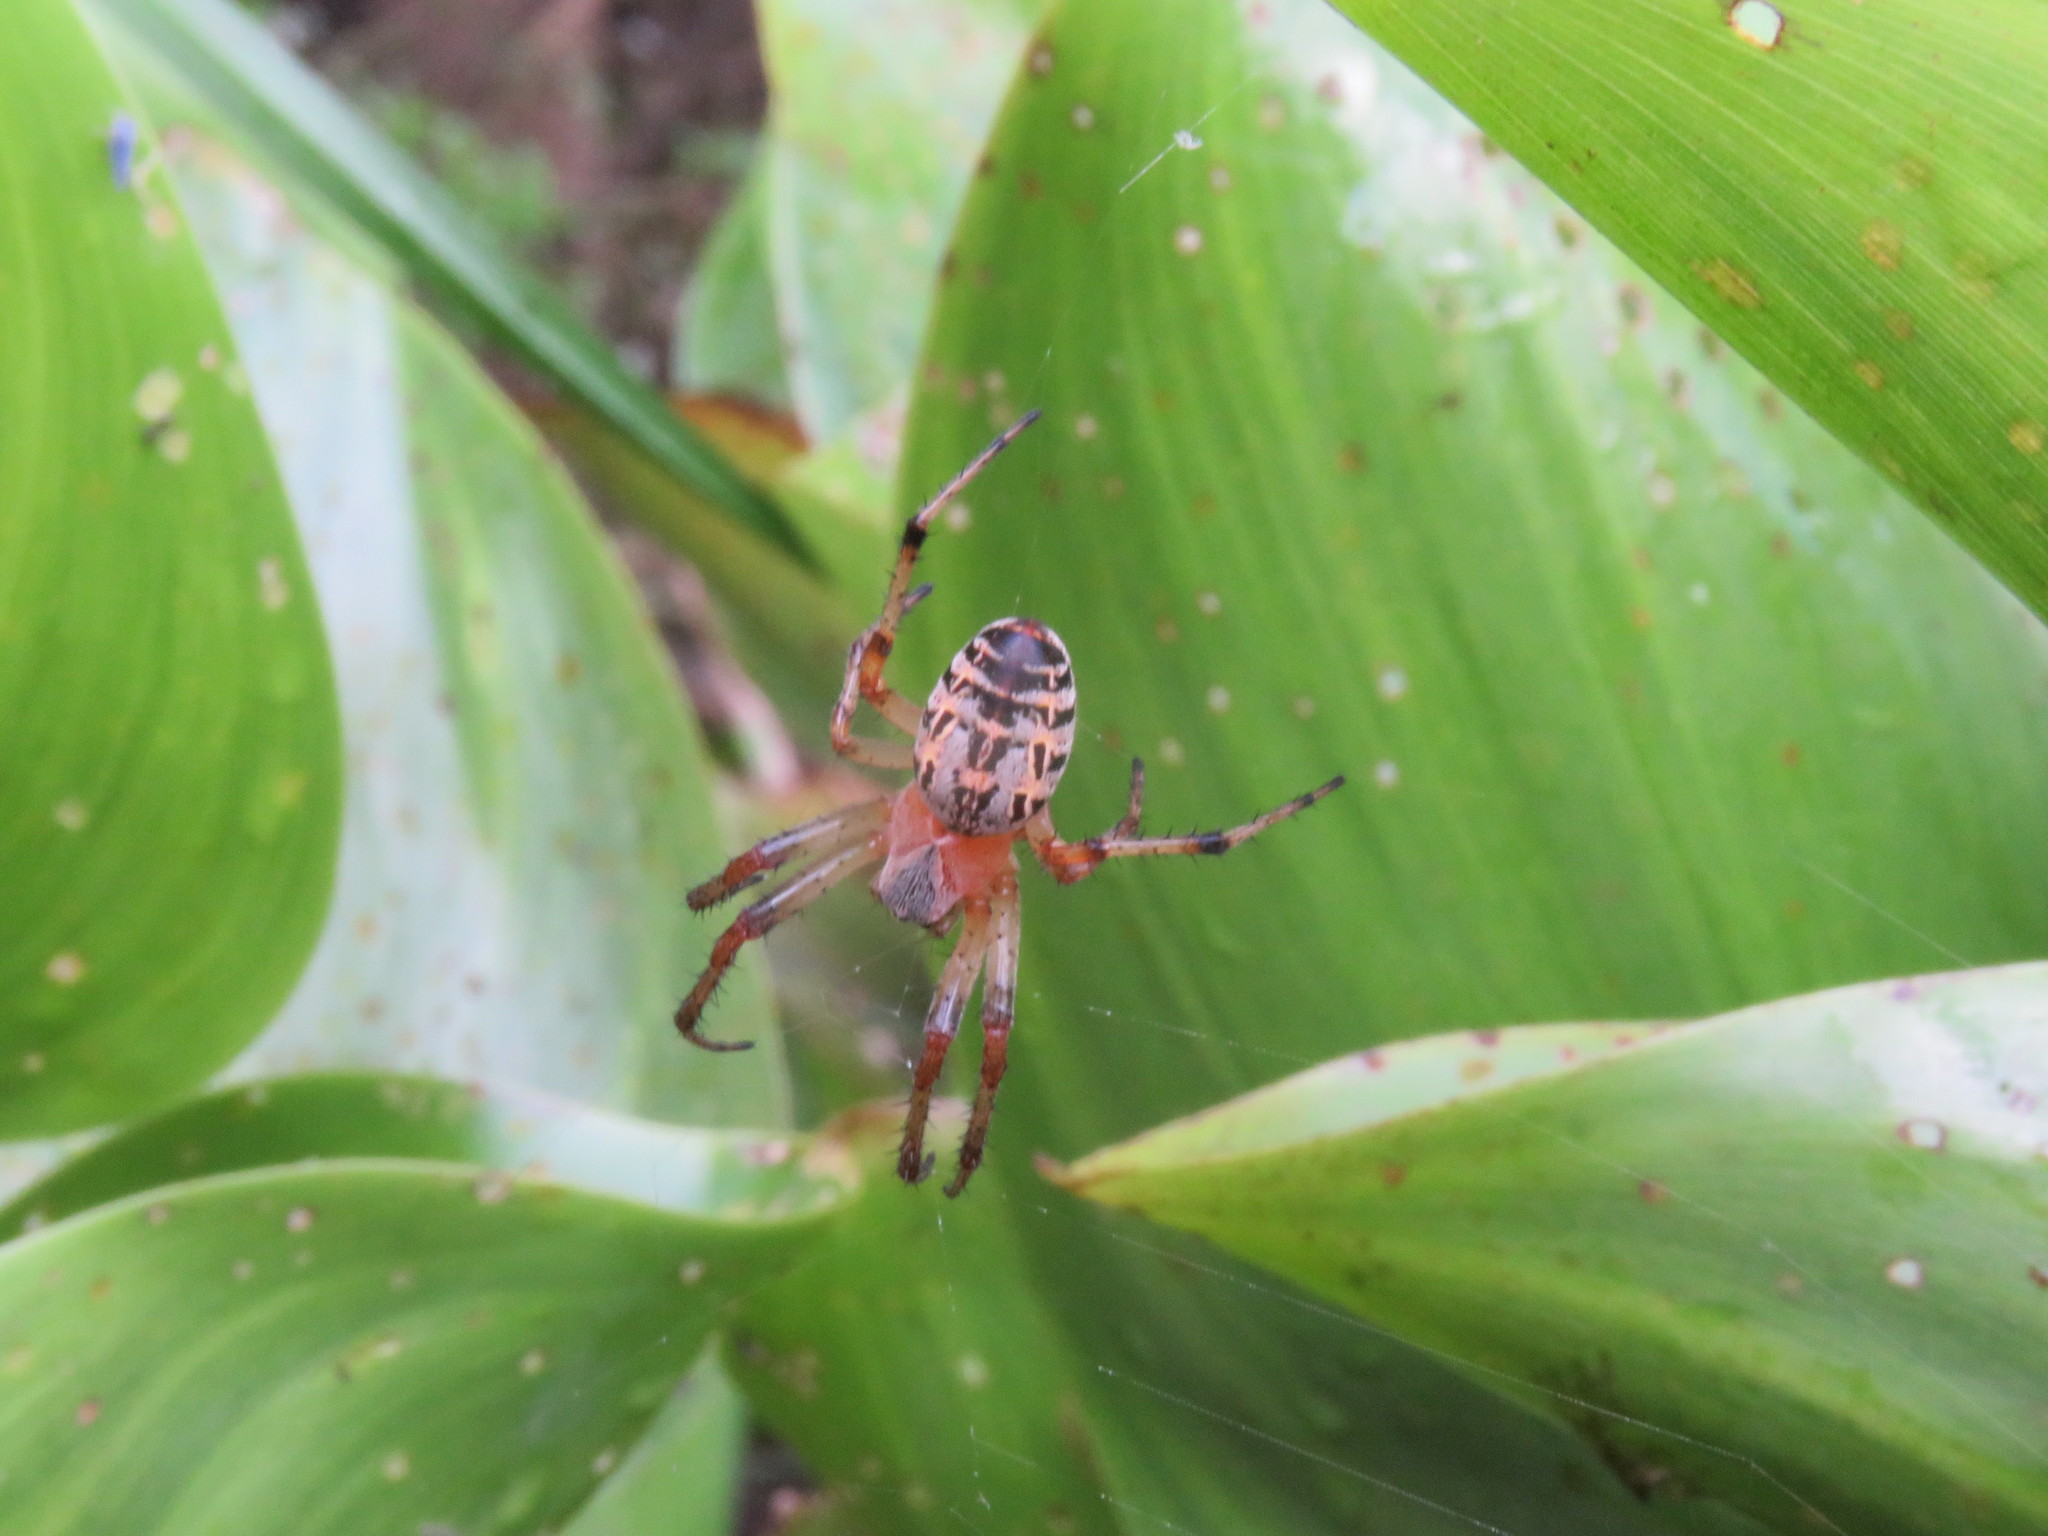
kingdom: Animalia
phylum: Arthropoda
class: Arachnida
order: Araneae
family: Araneidae
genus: Alpaida
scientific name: Alpaida veniliae
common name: Orb weavers
